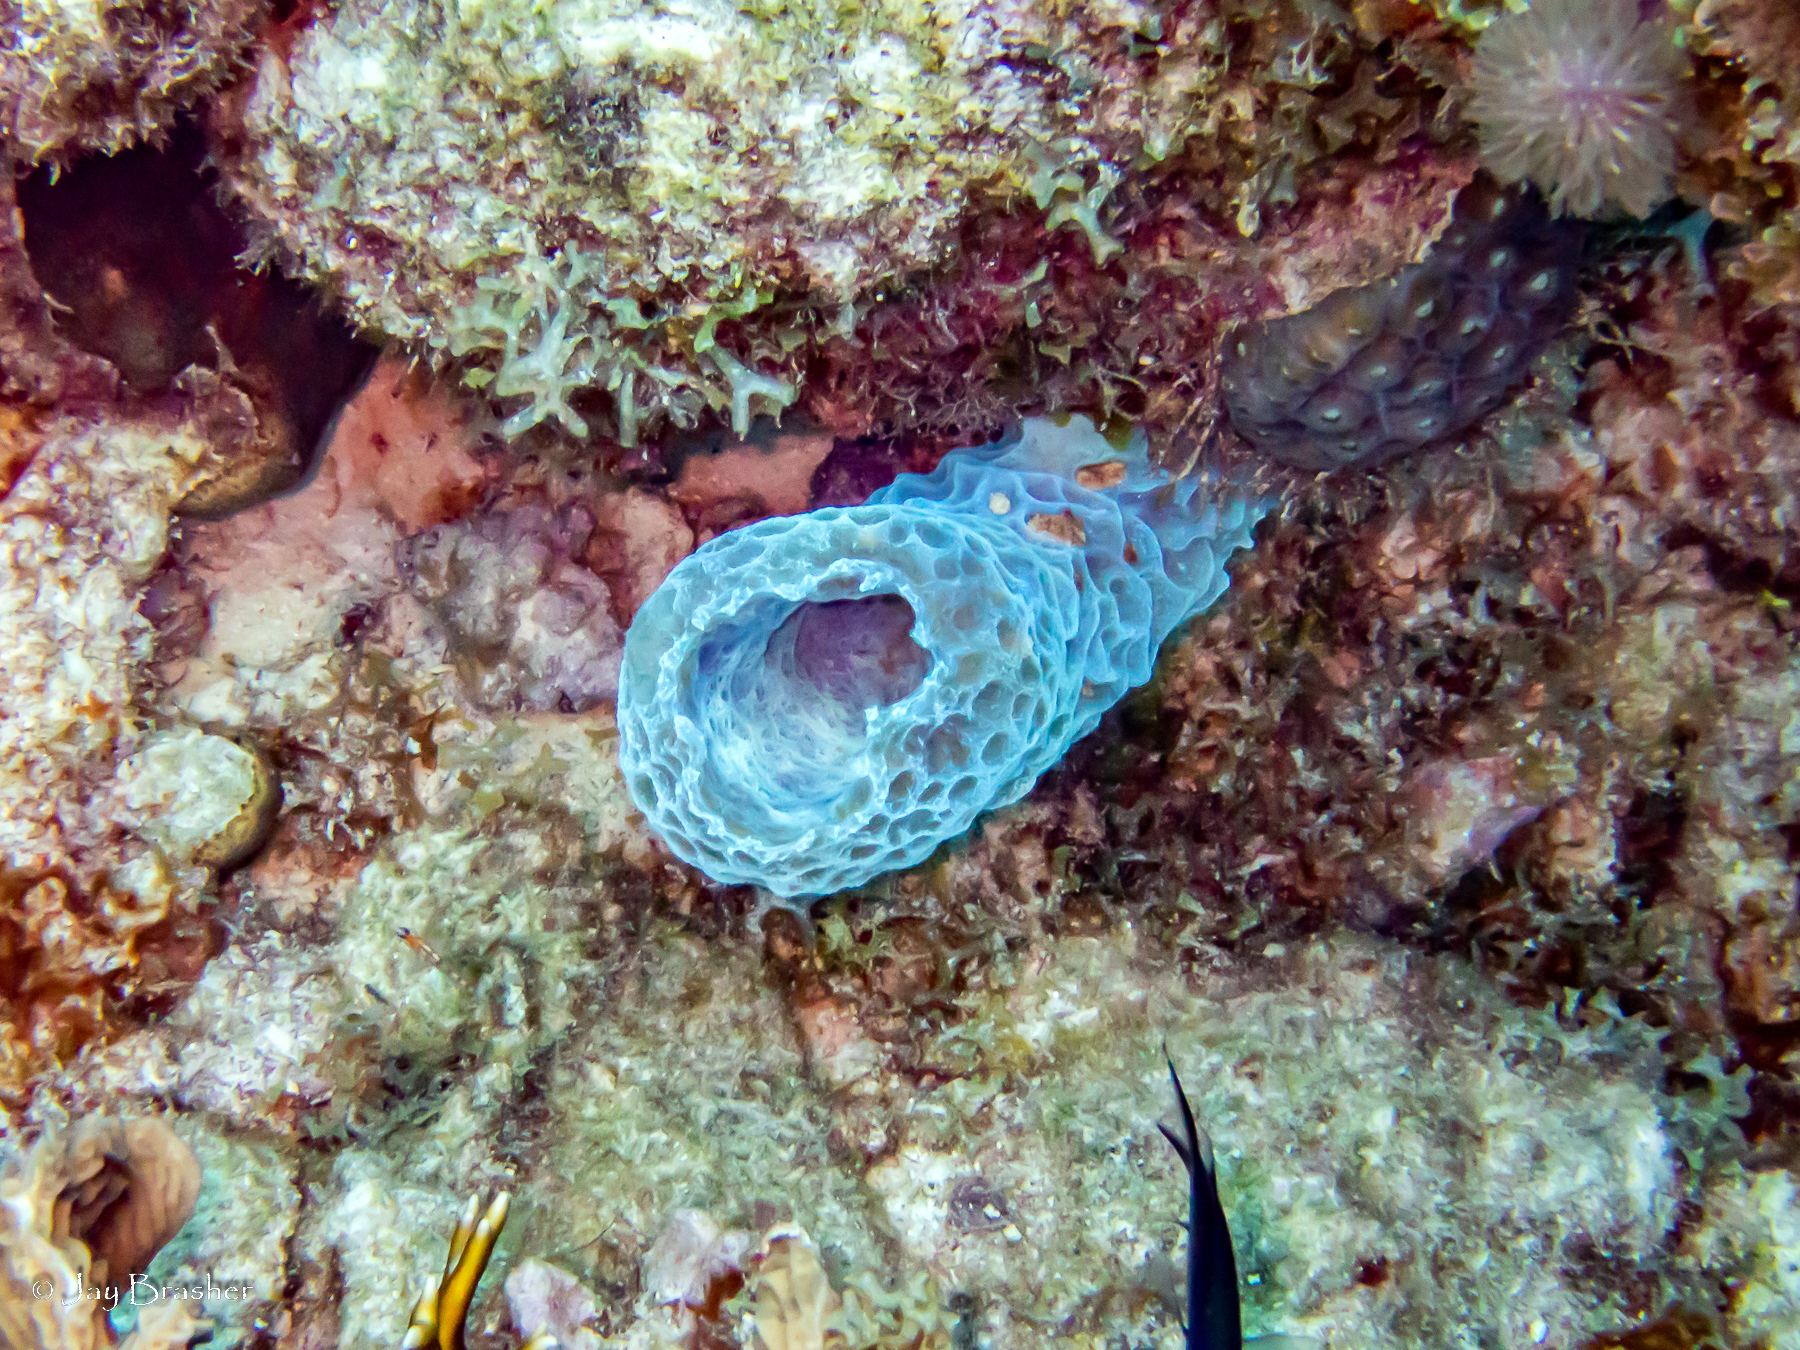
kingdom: Animalia
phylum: Porifera
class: Demospongiae
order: Haplosclerida
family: Callyspongiidae
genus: Callyspongia
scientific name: Callyspongia plicifera
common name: Azure vase sponge
